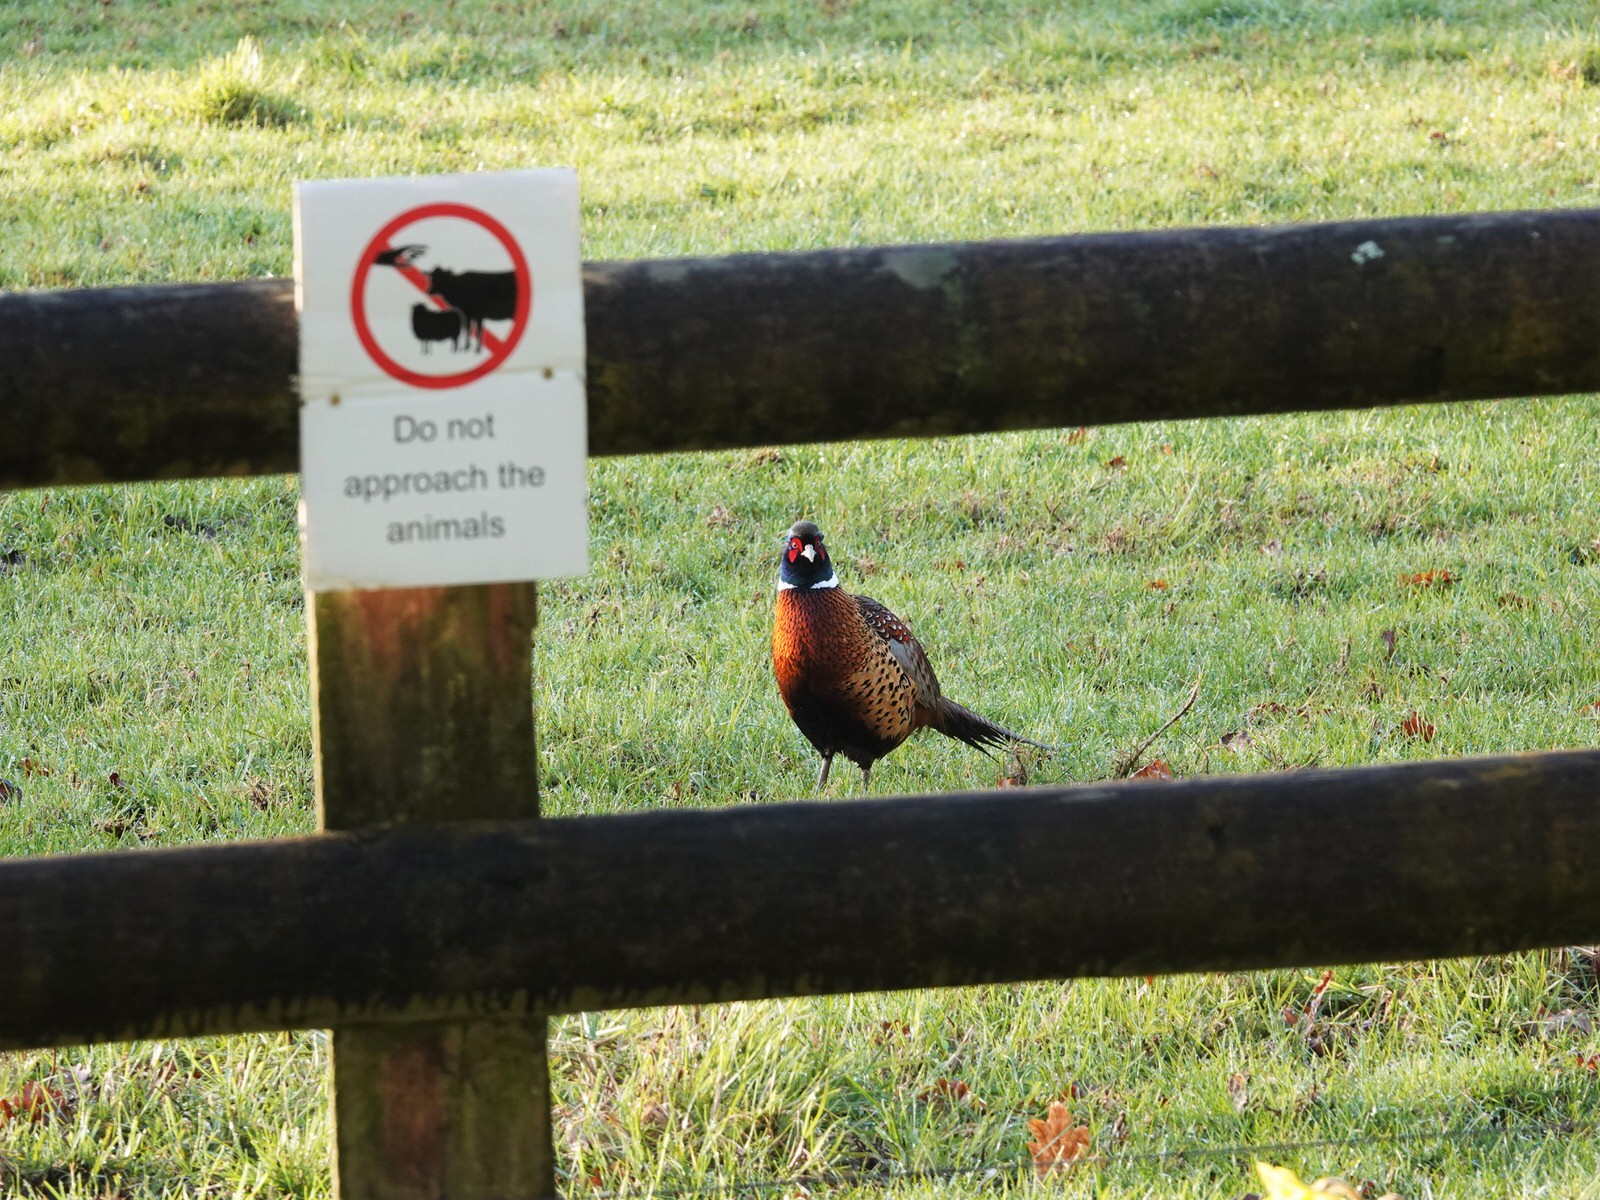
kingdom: Animalia
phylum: Chordata
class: Aves
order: Galliformes
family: Phasianidae
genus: Phasianus
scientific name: Phasianus colchicus
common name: Common pheasant
